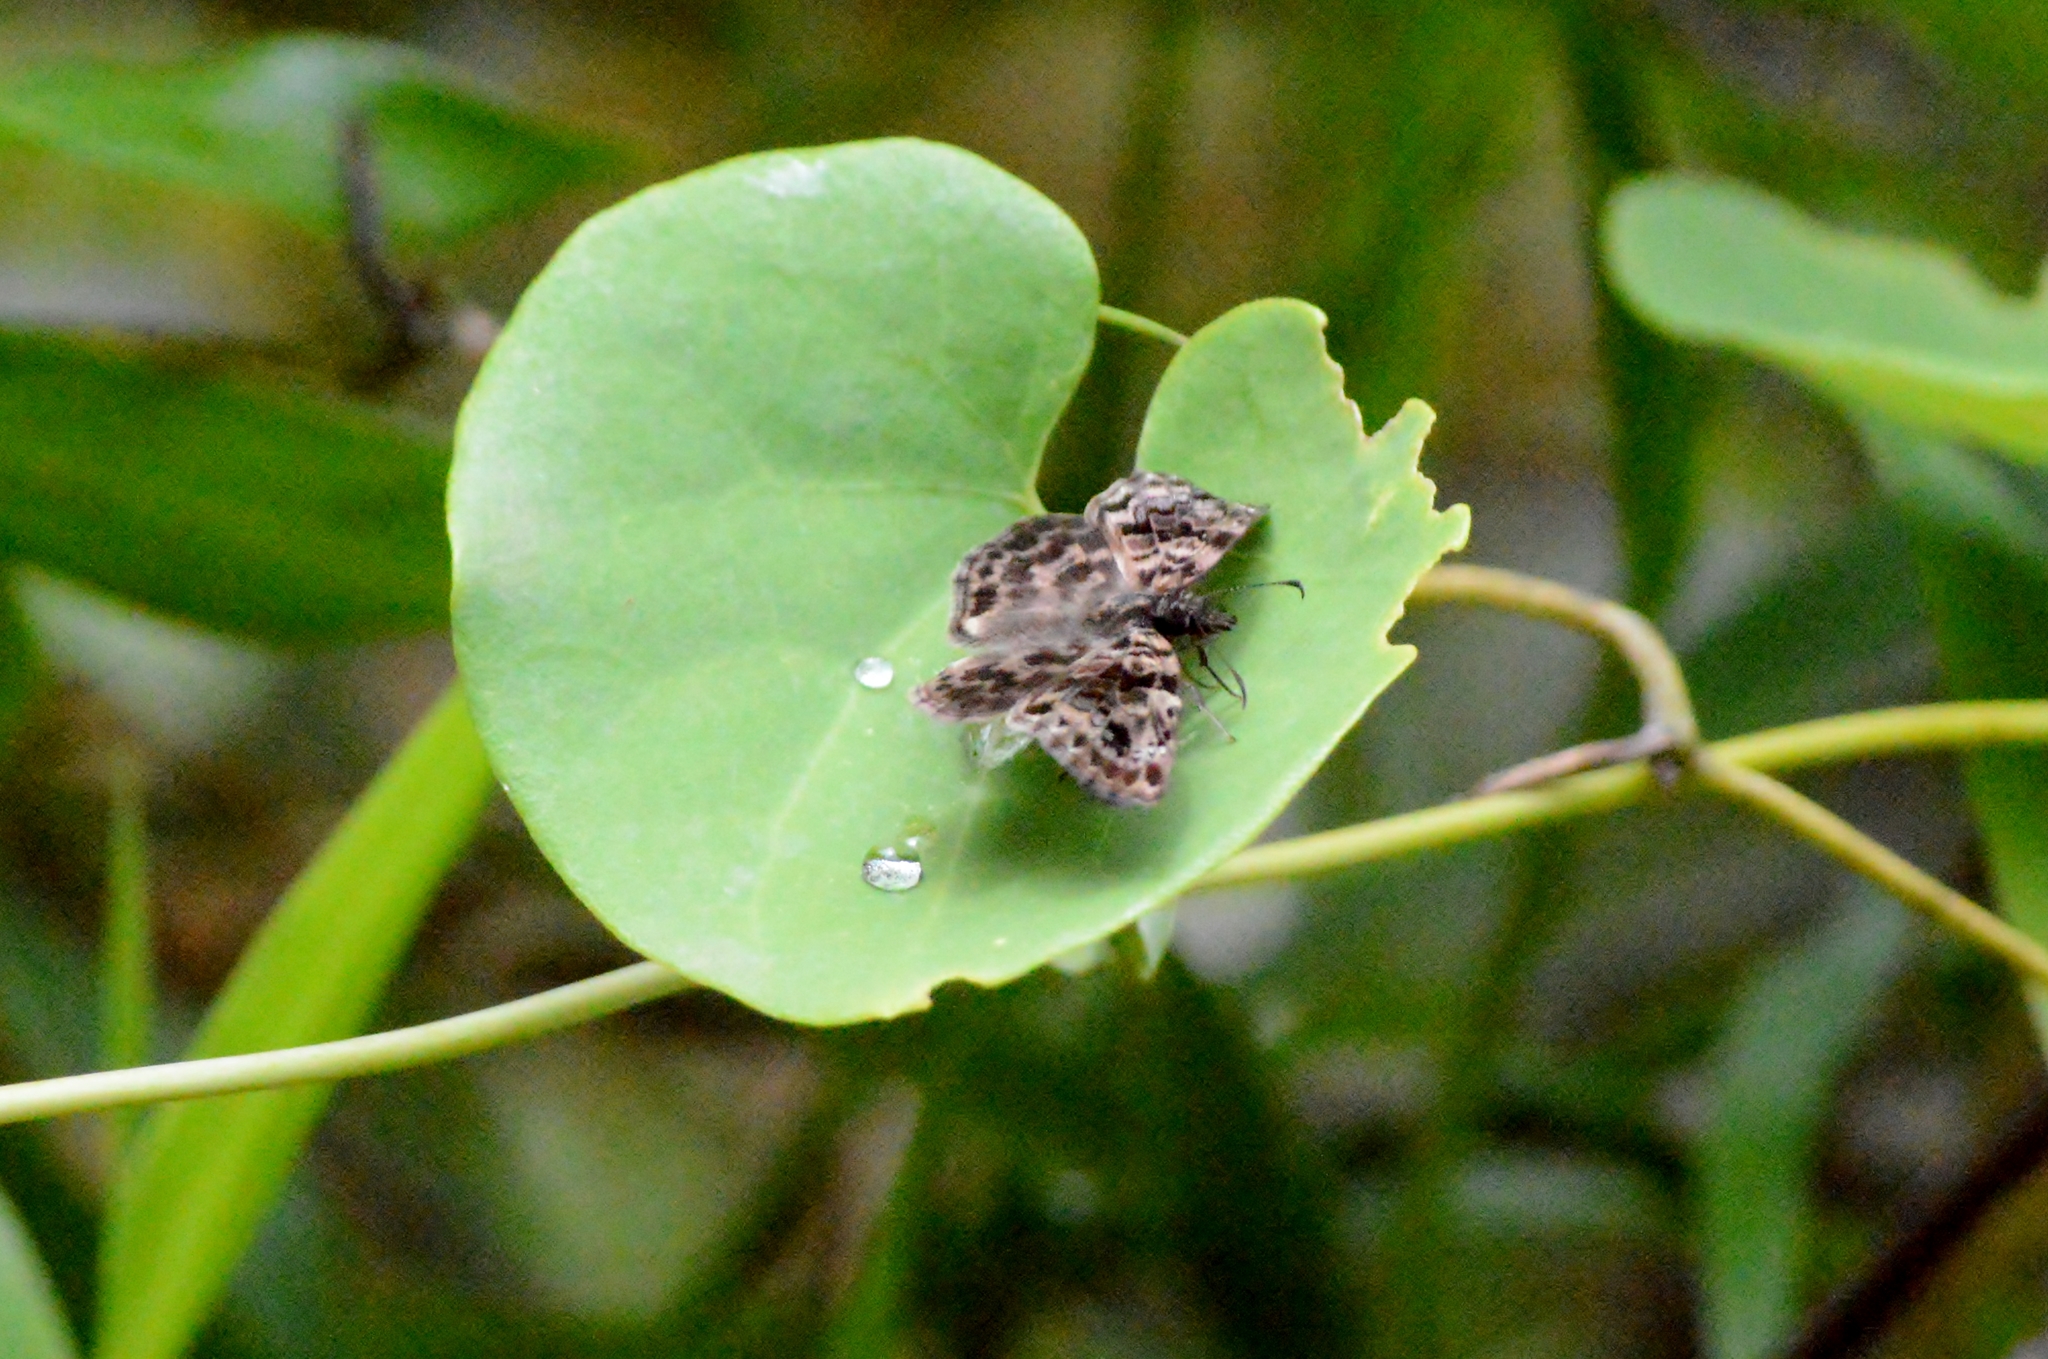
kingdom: Animalia
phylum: Arthropoda
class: Insecta
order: Lepidoptera
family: Hesperiidae
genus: Gorgythion
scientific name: Gorgythion begga
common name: Variegated skipper
